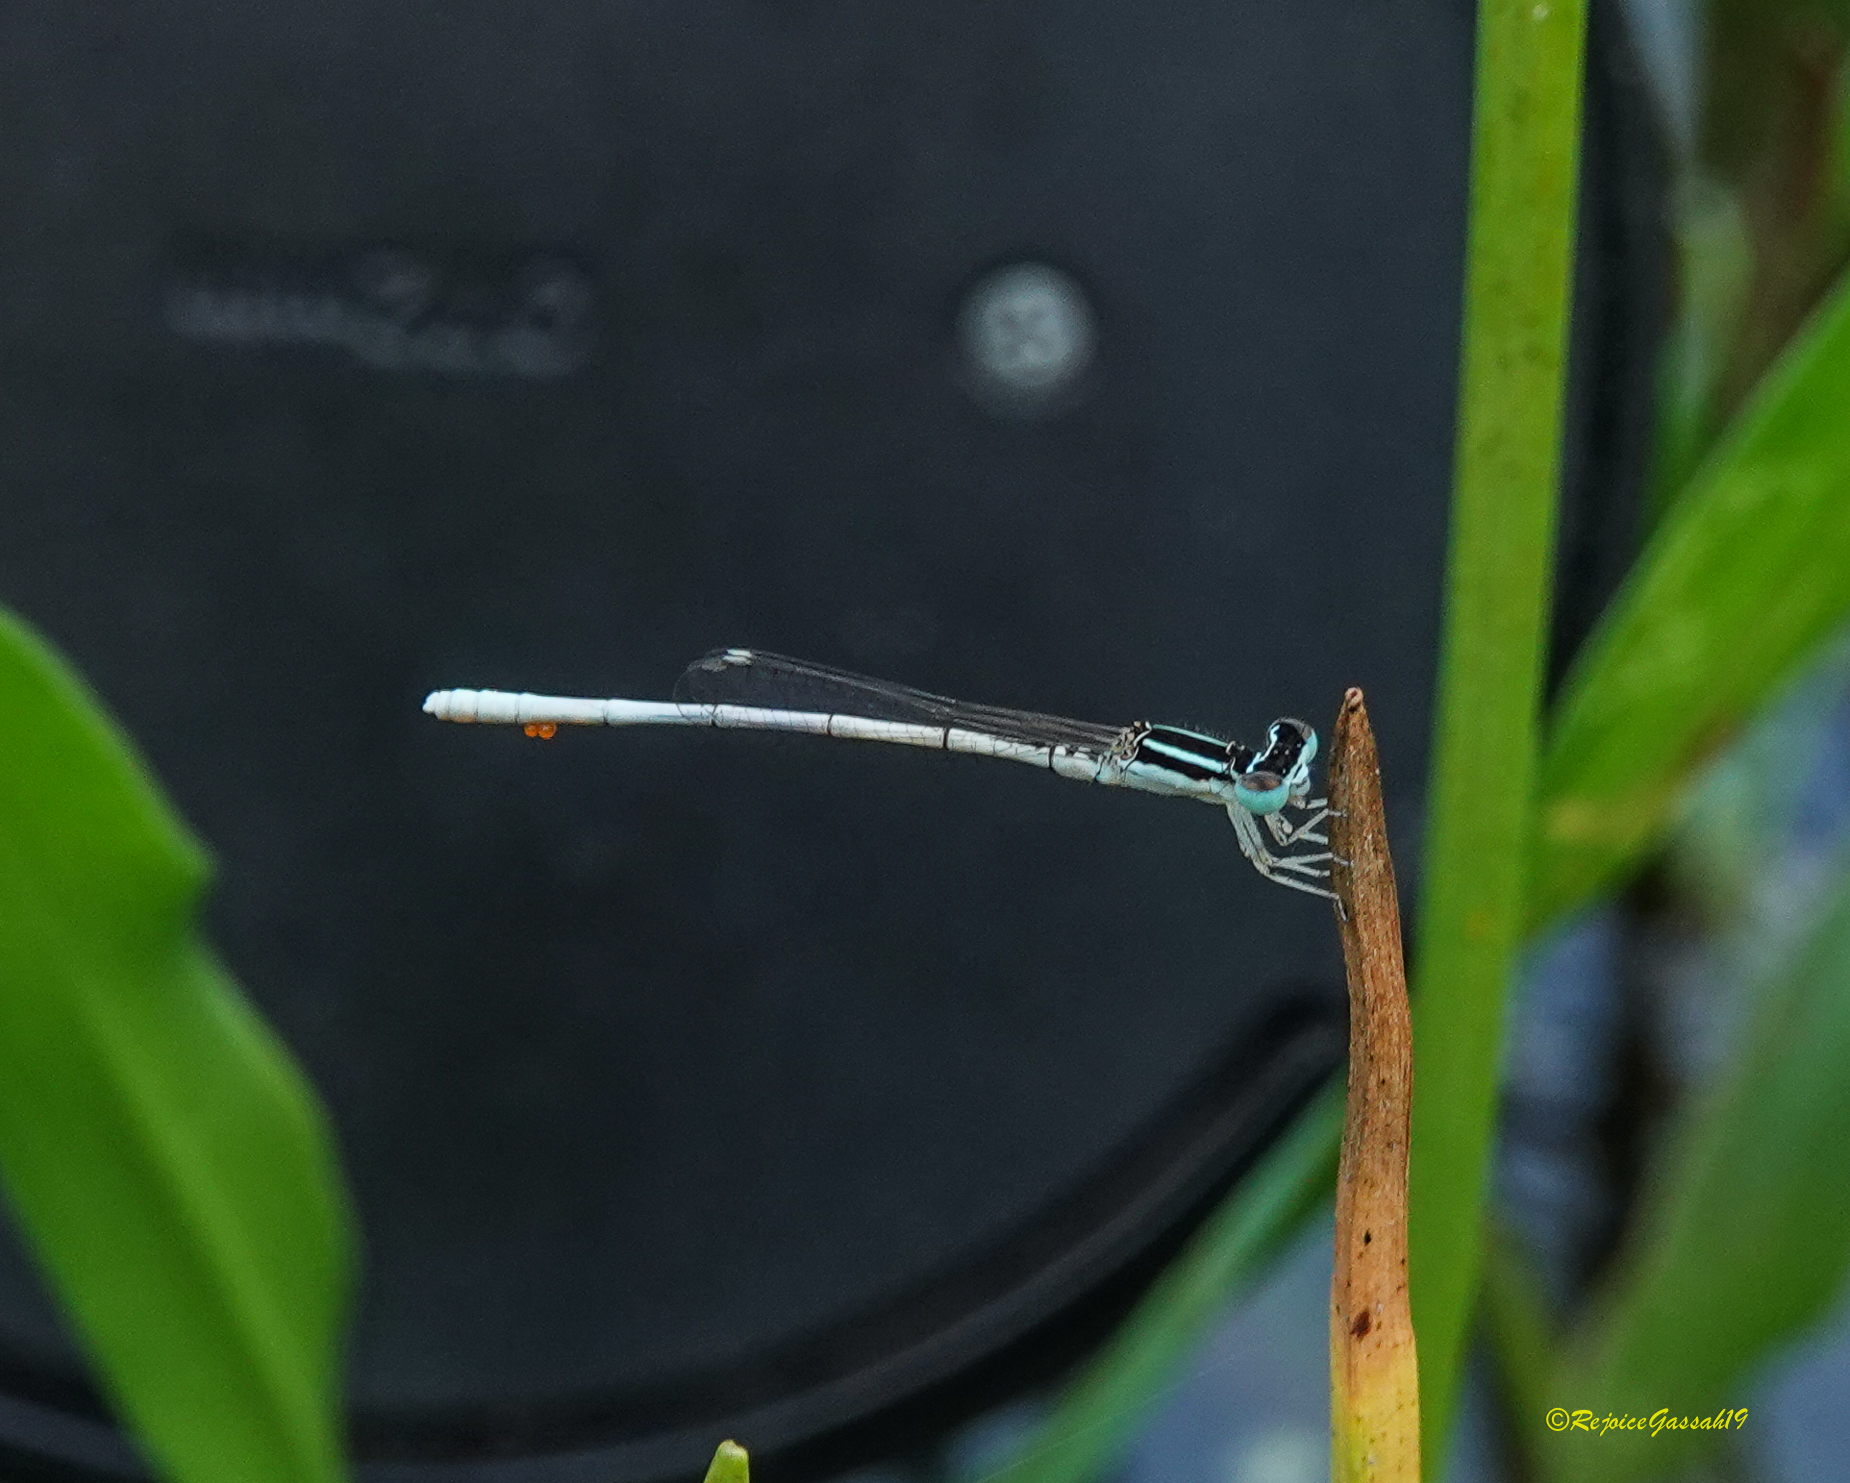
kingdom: Animalia
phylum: Arthropoda
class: Insecta
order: Odonata
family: Coenagrionidae
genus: Agriocnemis
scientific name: Agriocnemis lacteola
